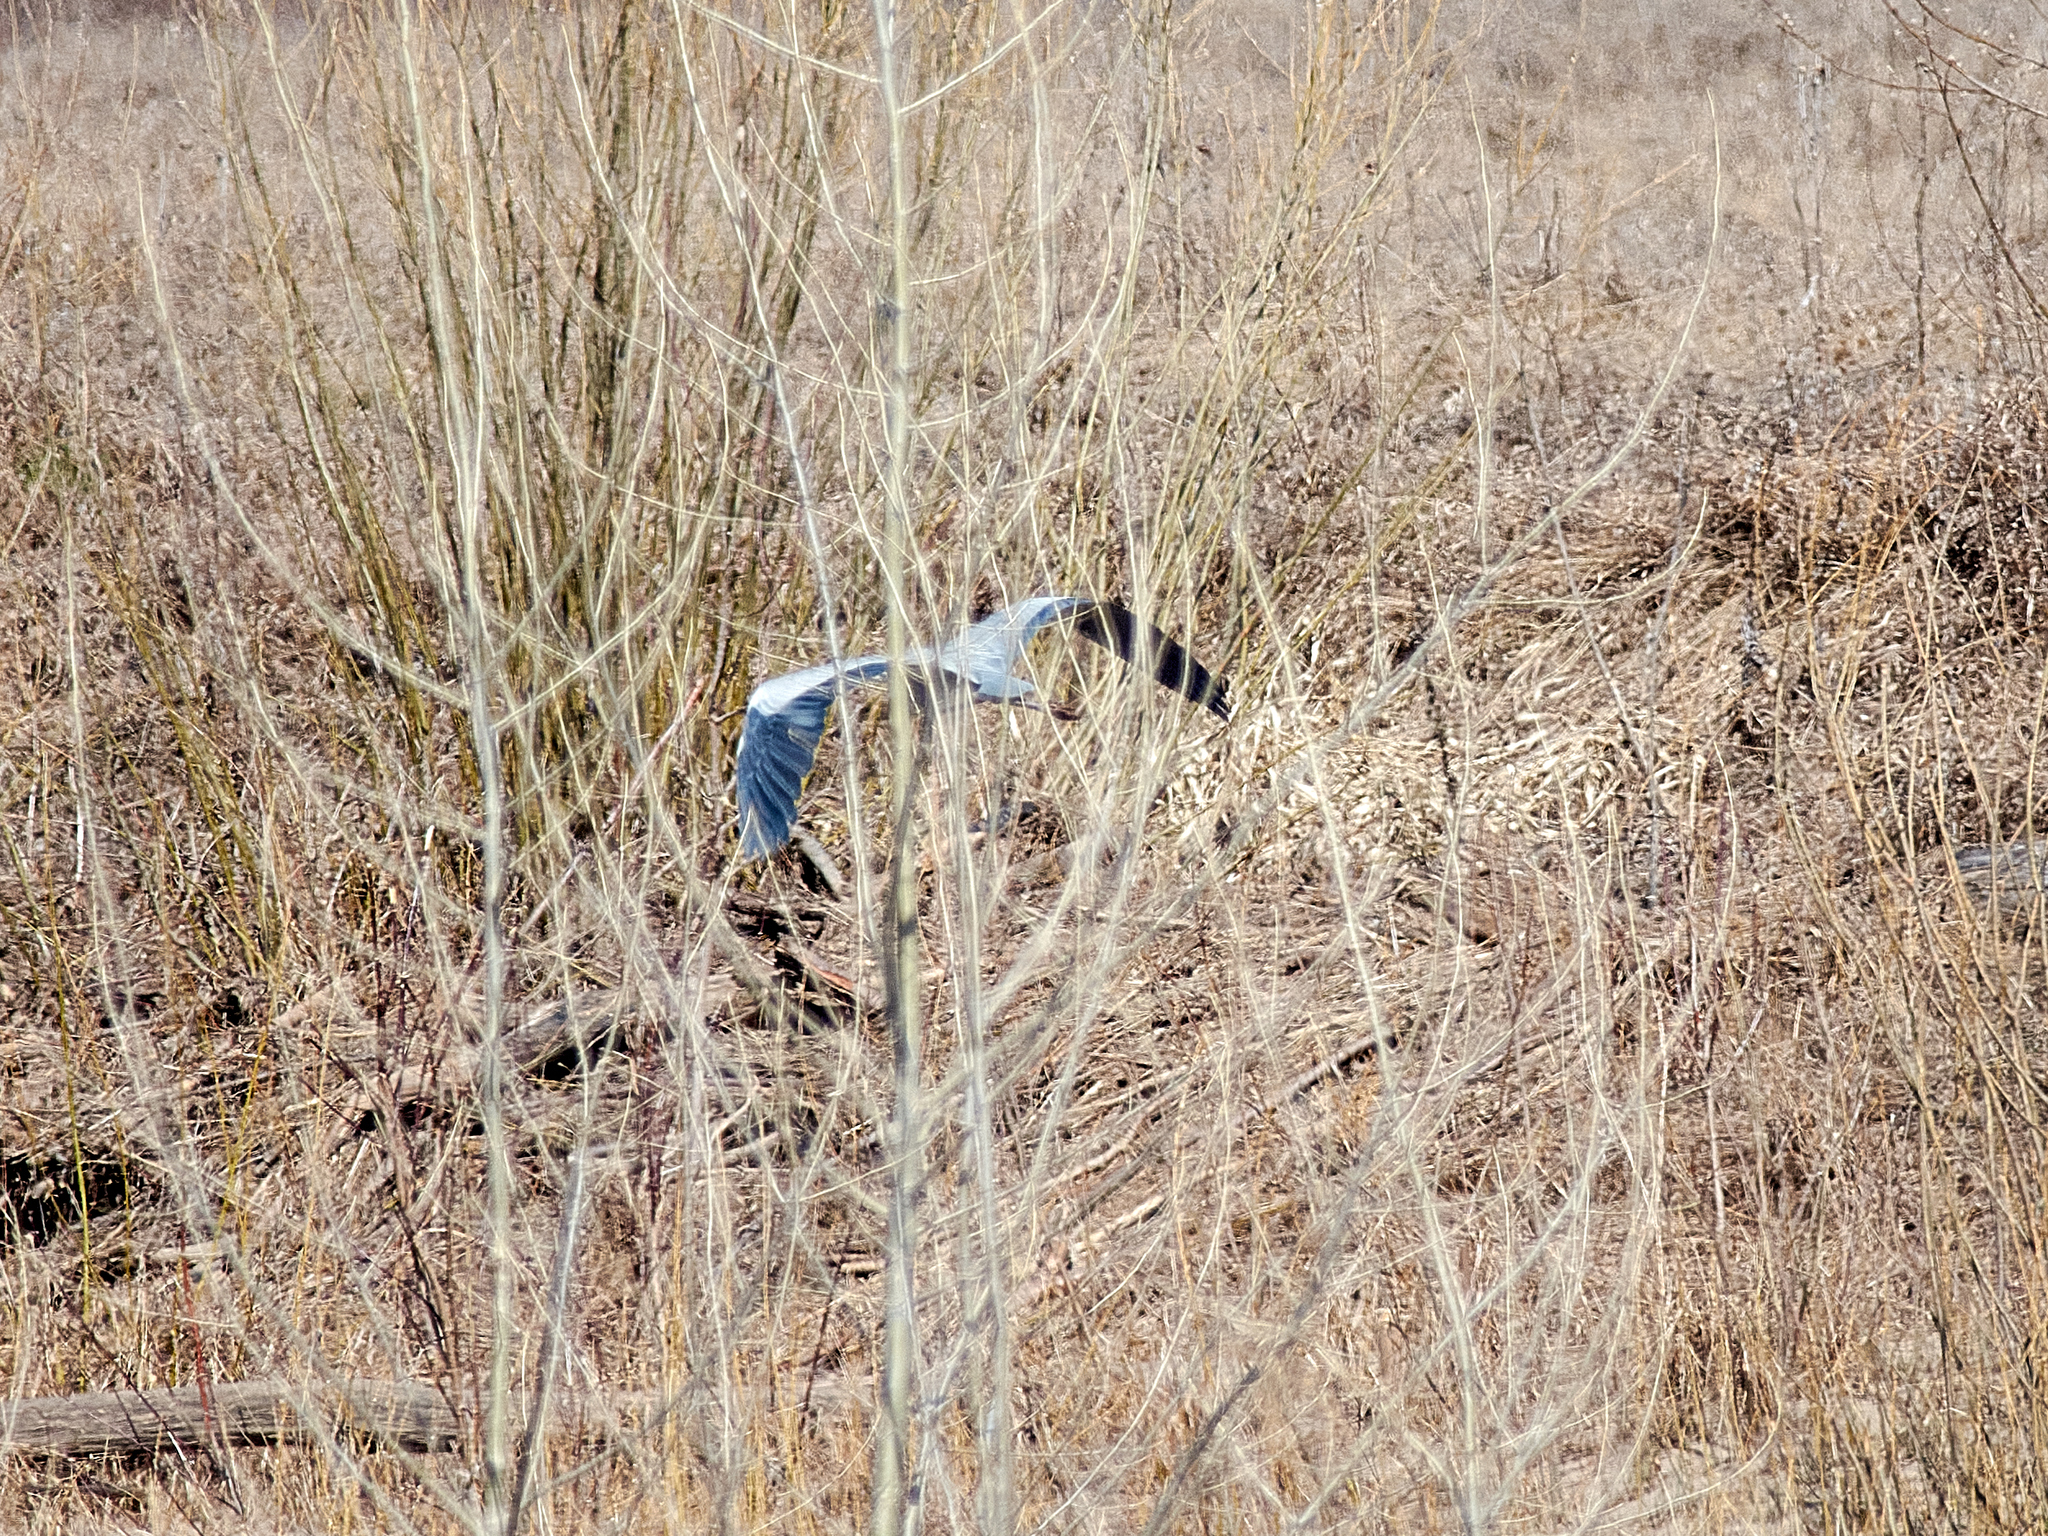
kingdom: Animalia
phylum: Chordata
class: Aves
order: Pelecaniformes
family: Ardeidae
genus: Ardea
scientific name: Ardea cinerea
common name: Grey heron
